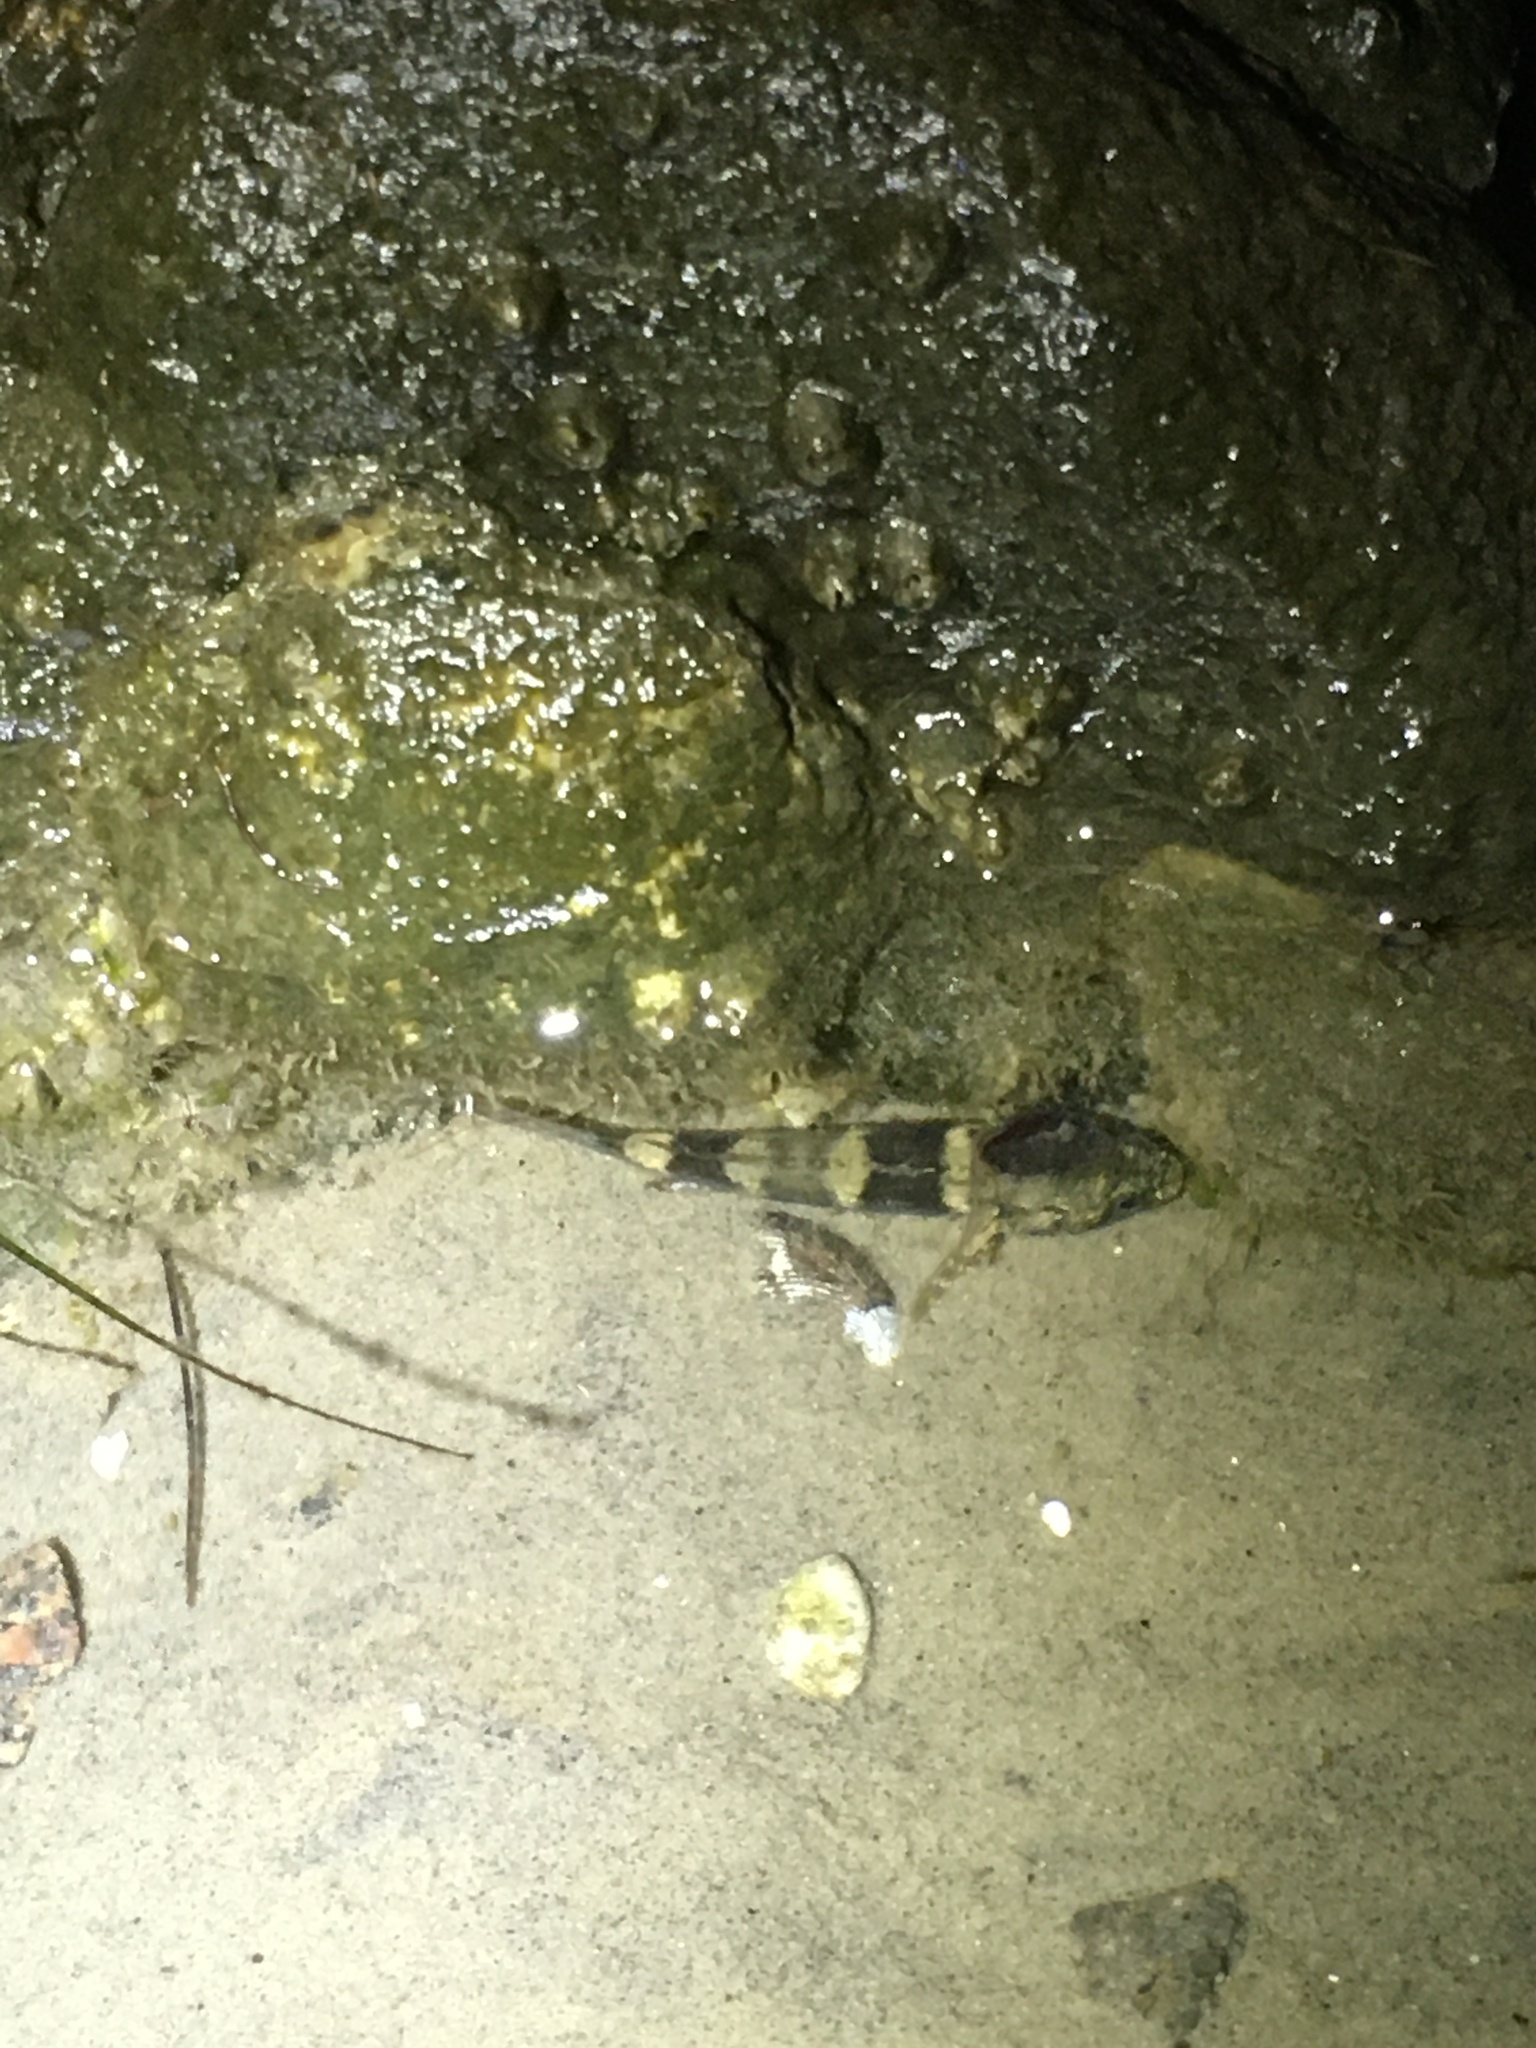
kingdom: Animalia
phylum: Chordata
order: Perciformes
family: Gobiidae
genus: Bathygobius
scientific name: Bathygobius soporator
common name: Frillfin goby
